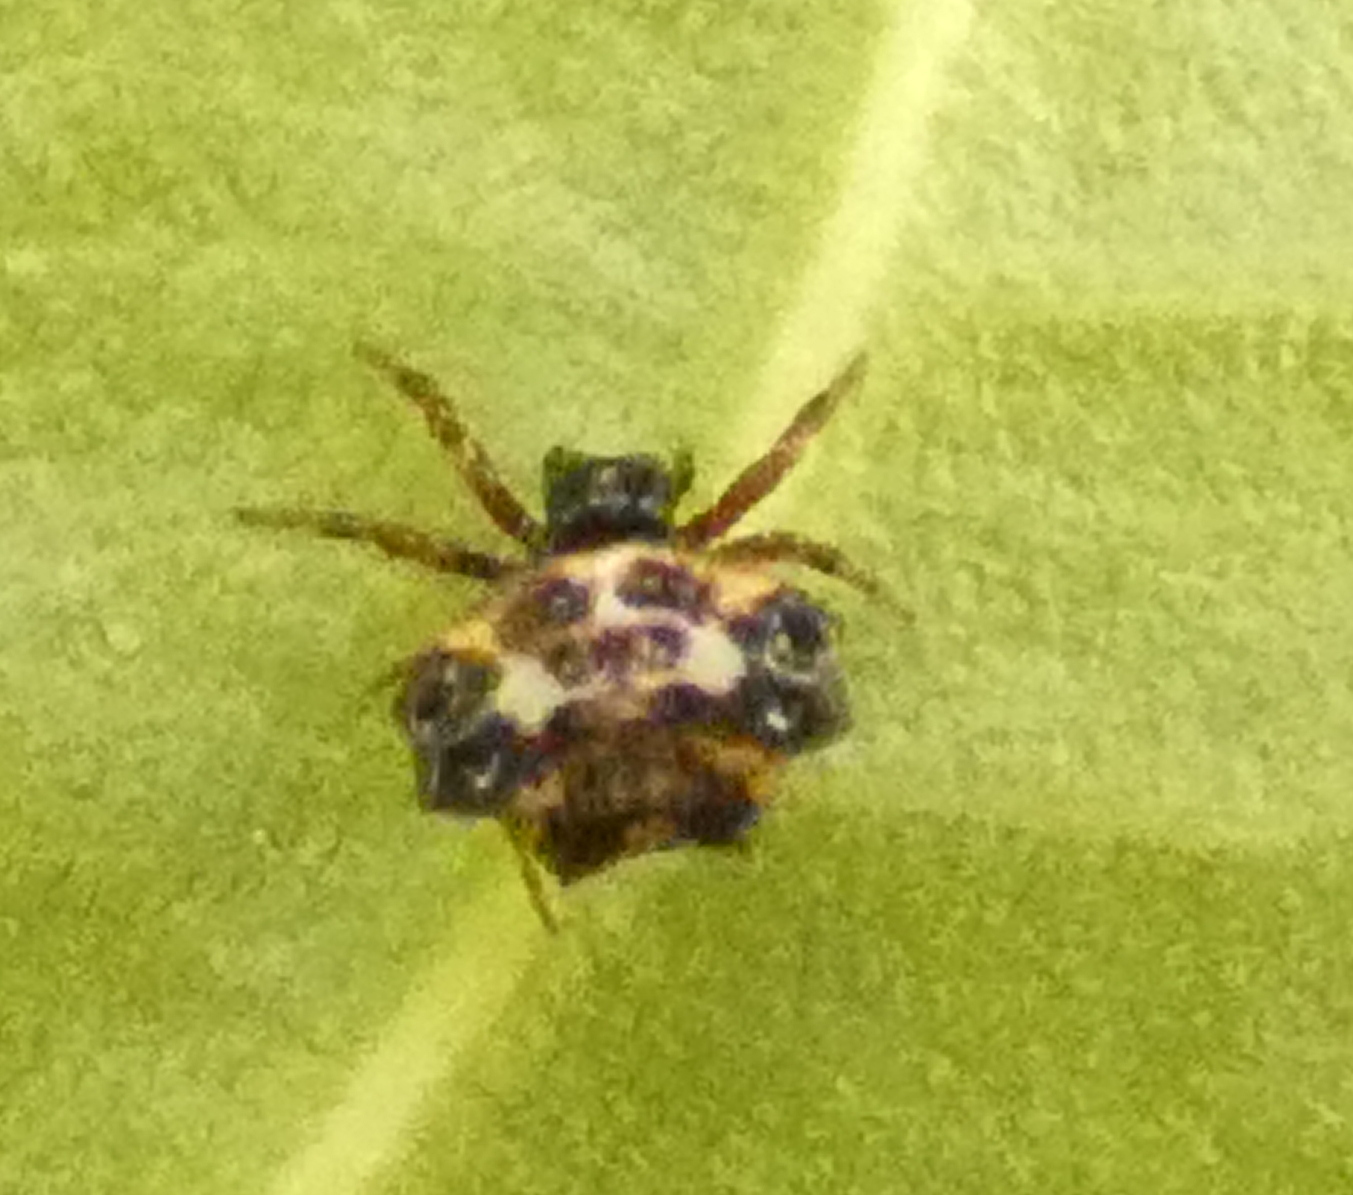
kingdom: Animalia
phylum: Arthropoda
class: Arachnida
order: Araneae
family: Araneidae
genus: Gasteracantha
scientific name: Gasteracantha cancriformis
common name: Orb weavers
